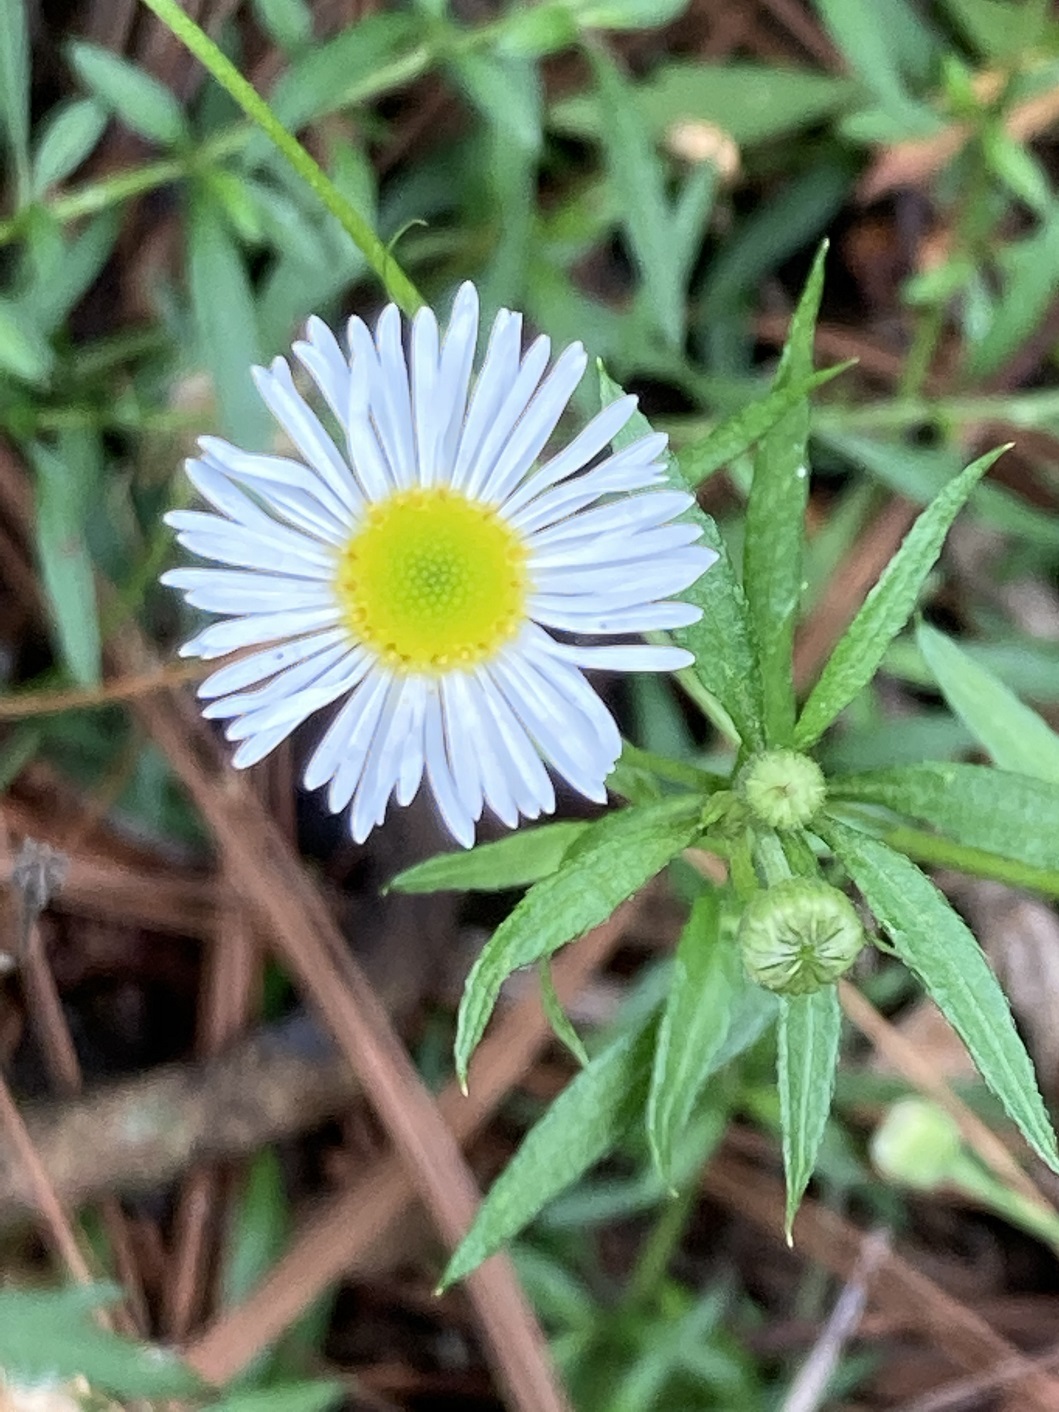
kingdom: Plantae
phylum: Tracheophyta
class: Magnoliopsida
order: Asterales
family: Asteraceae
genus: Erigeron
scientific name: Erigeron karvinskianus
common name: Mexican fleabane
